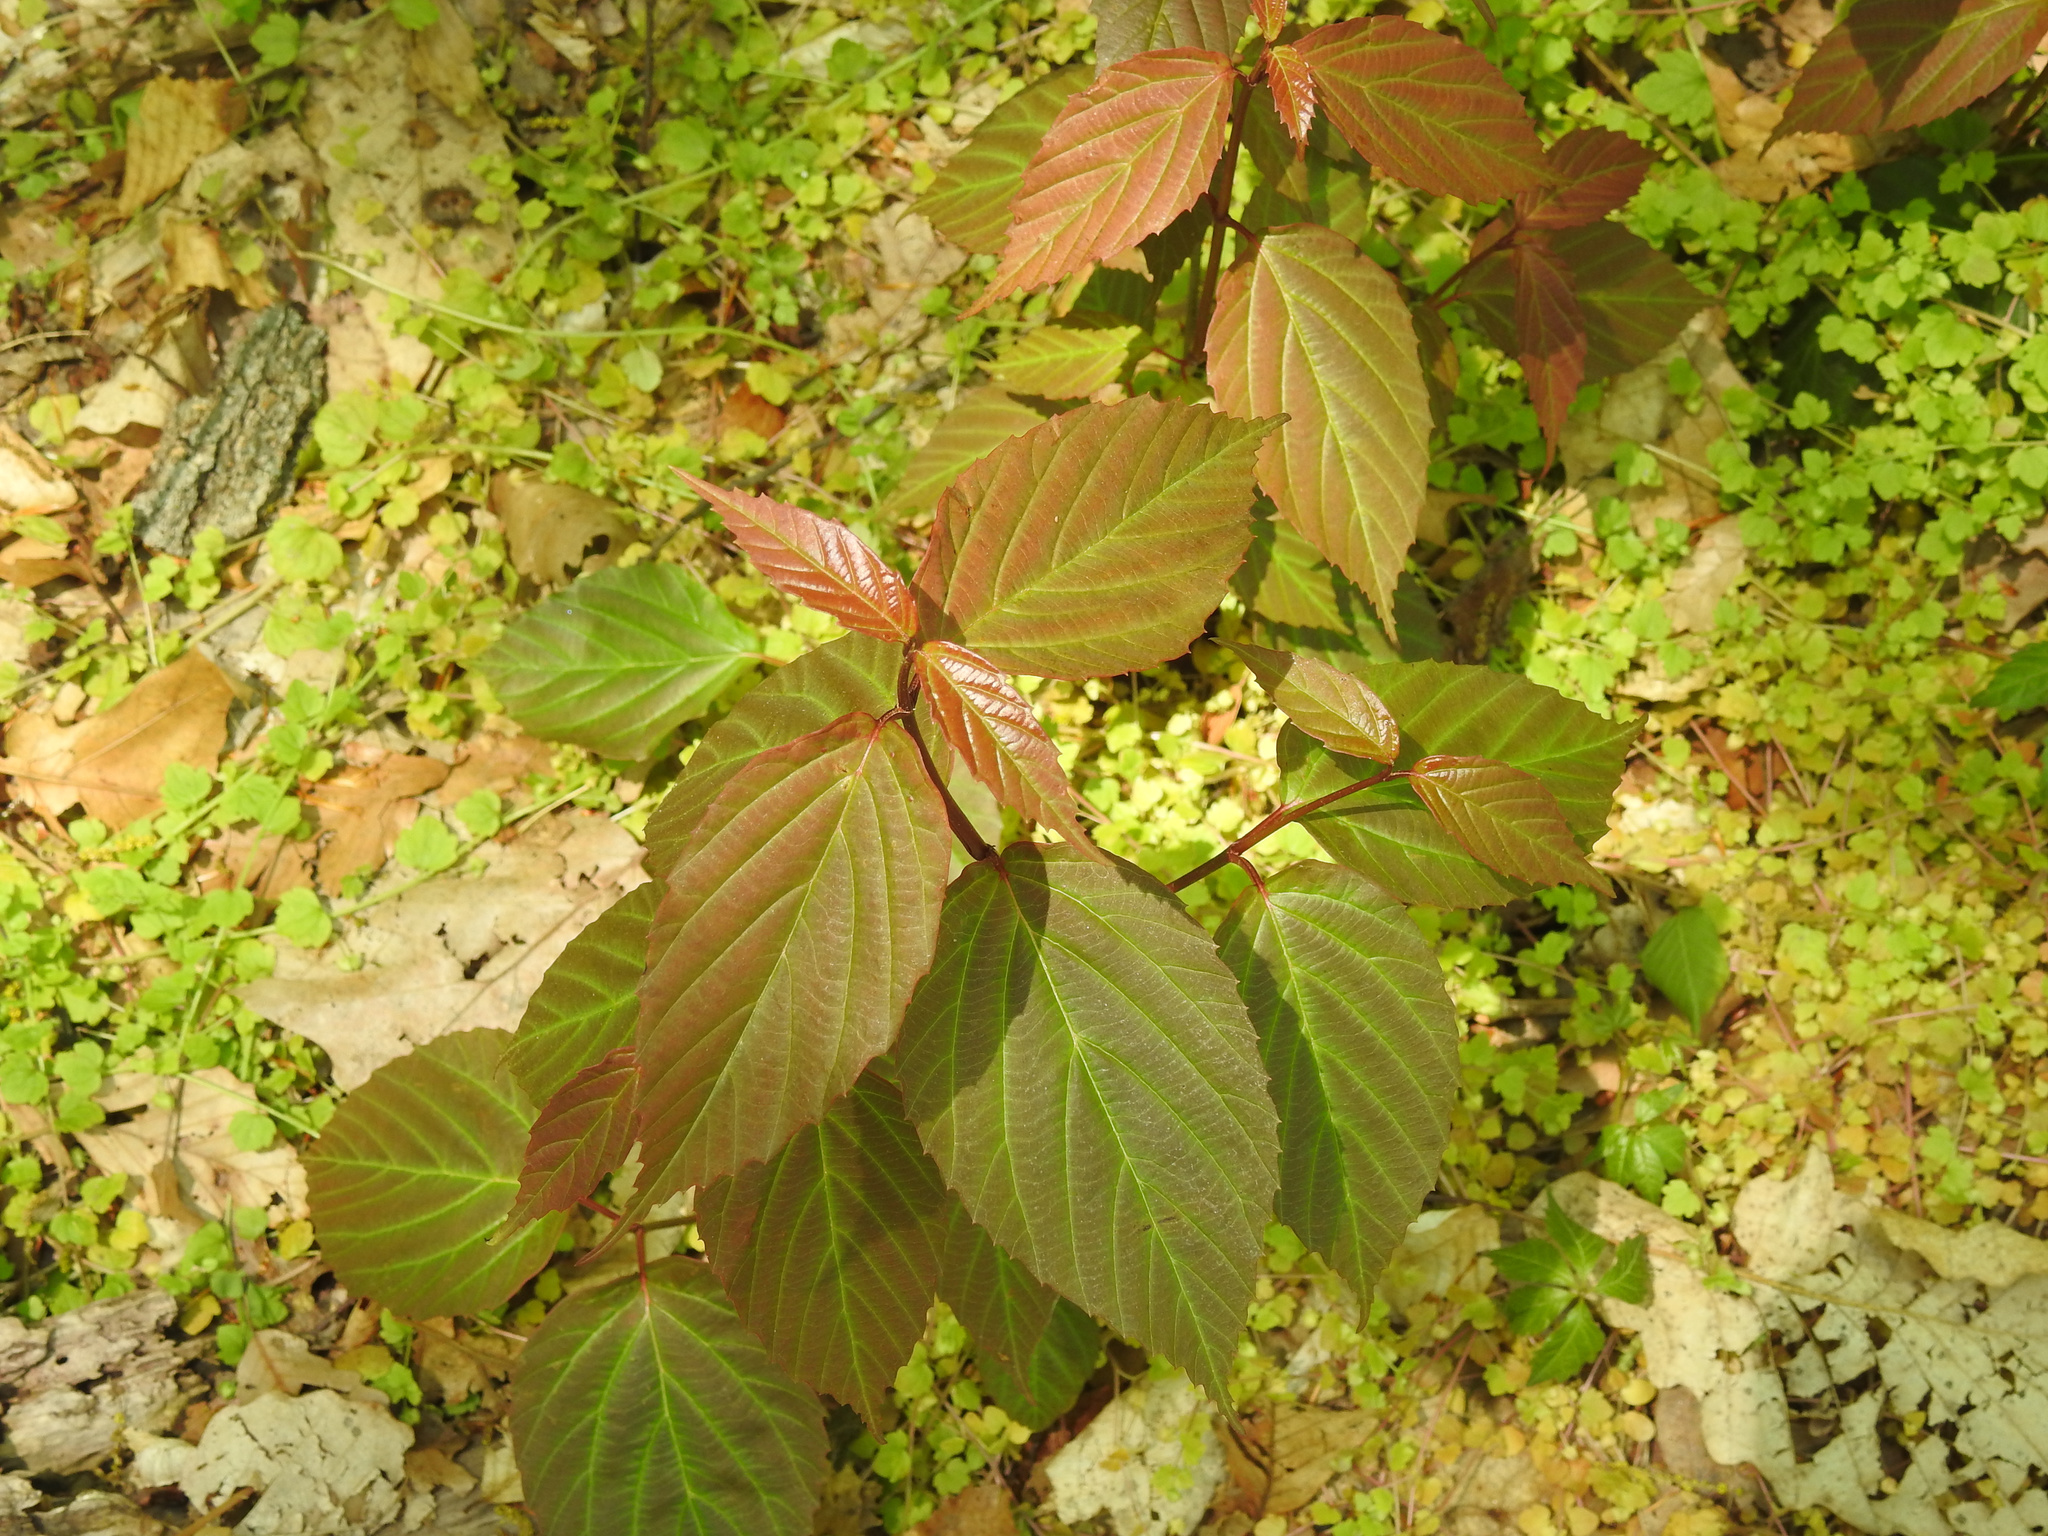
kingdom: Plantae
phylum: Tracheophyta
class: Magnoliopsida
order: Dipsacales
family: Viburnaceae
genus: Viburnum
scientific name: Viburnum setigerum
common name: Tea viburnum
